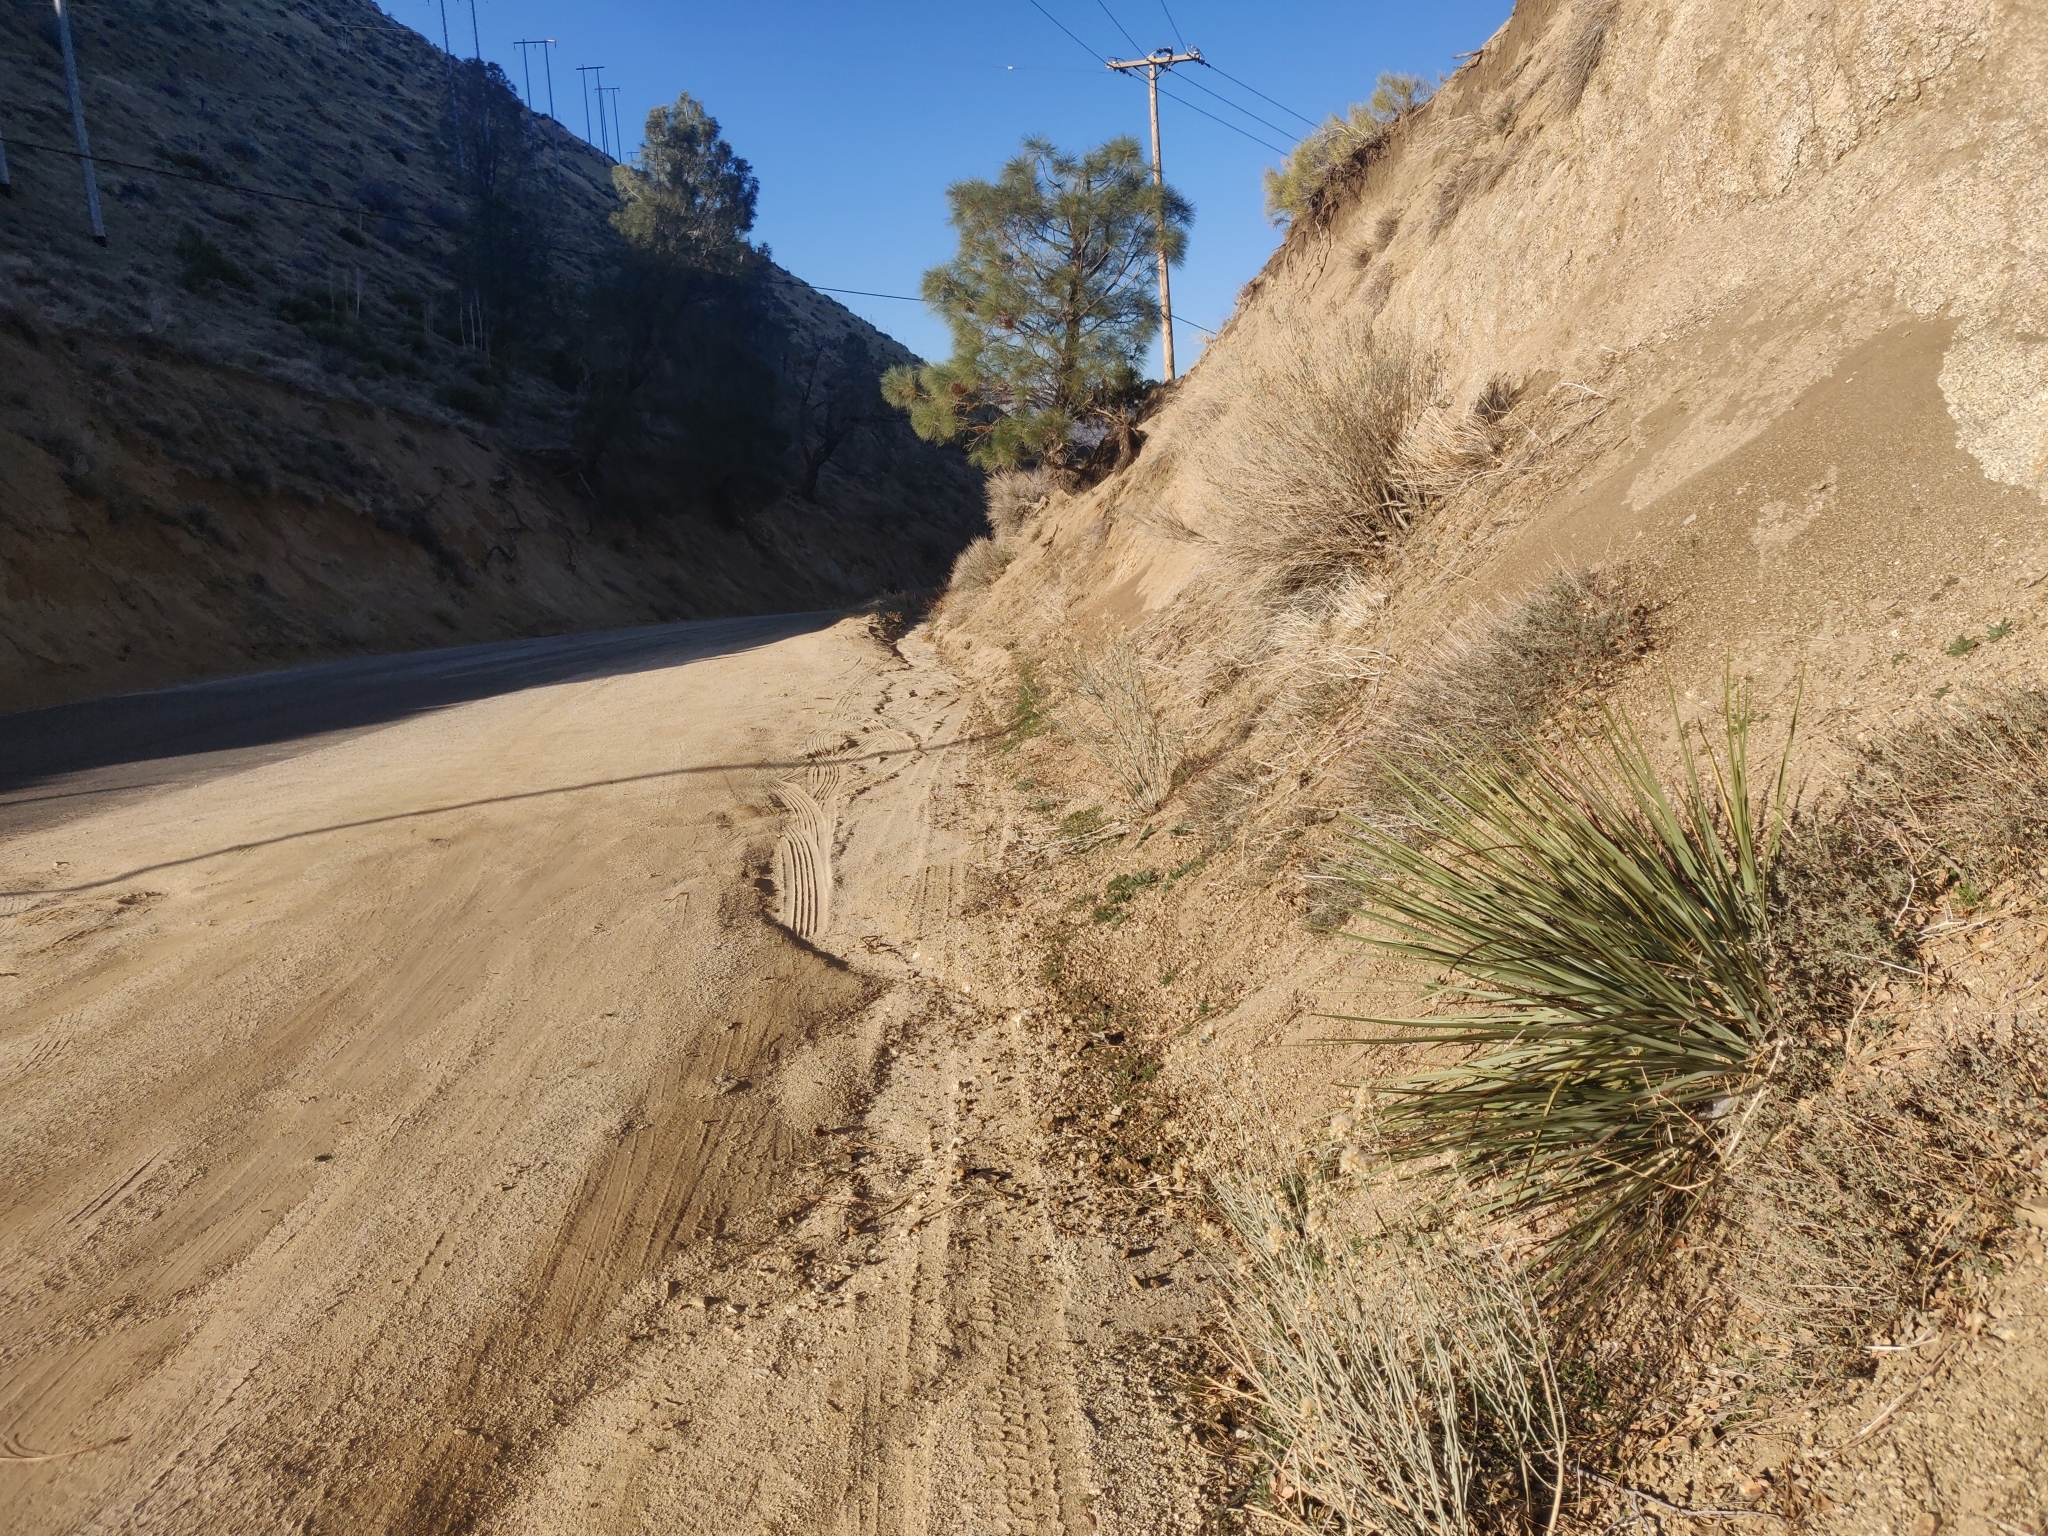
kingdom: Plantae
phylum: Tracheophyta
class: Liliopsida
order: Asparagales
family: Asparagaceae
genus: Hesperoyucca
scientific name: Hesperoyucca whipplei
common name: Our lord's-candle
